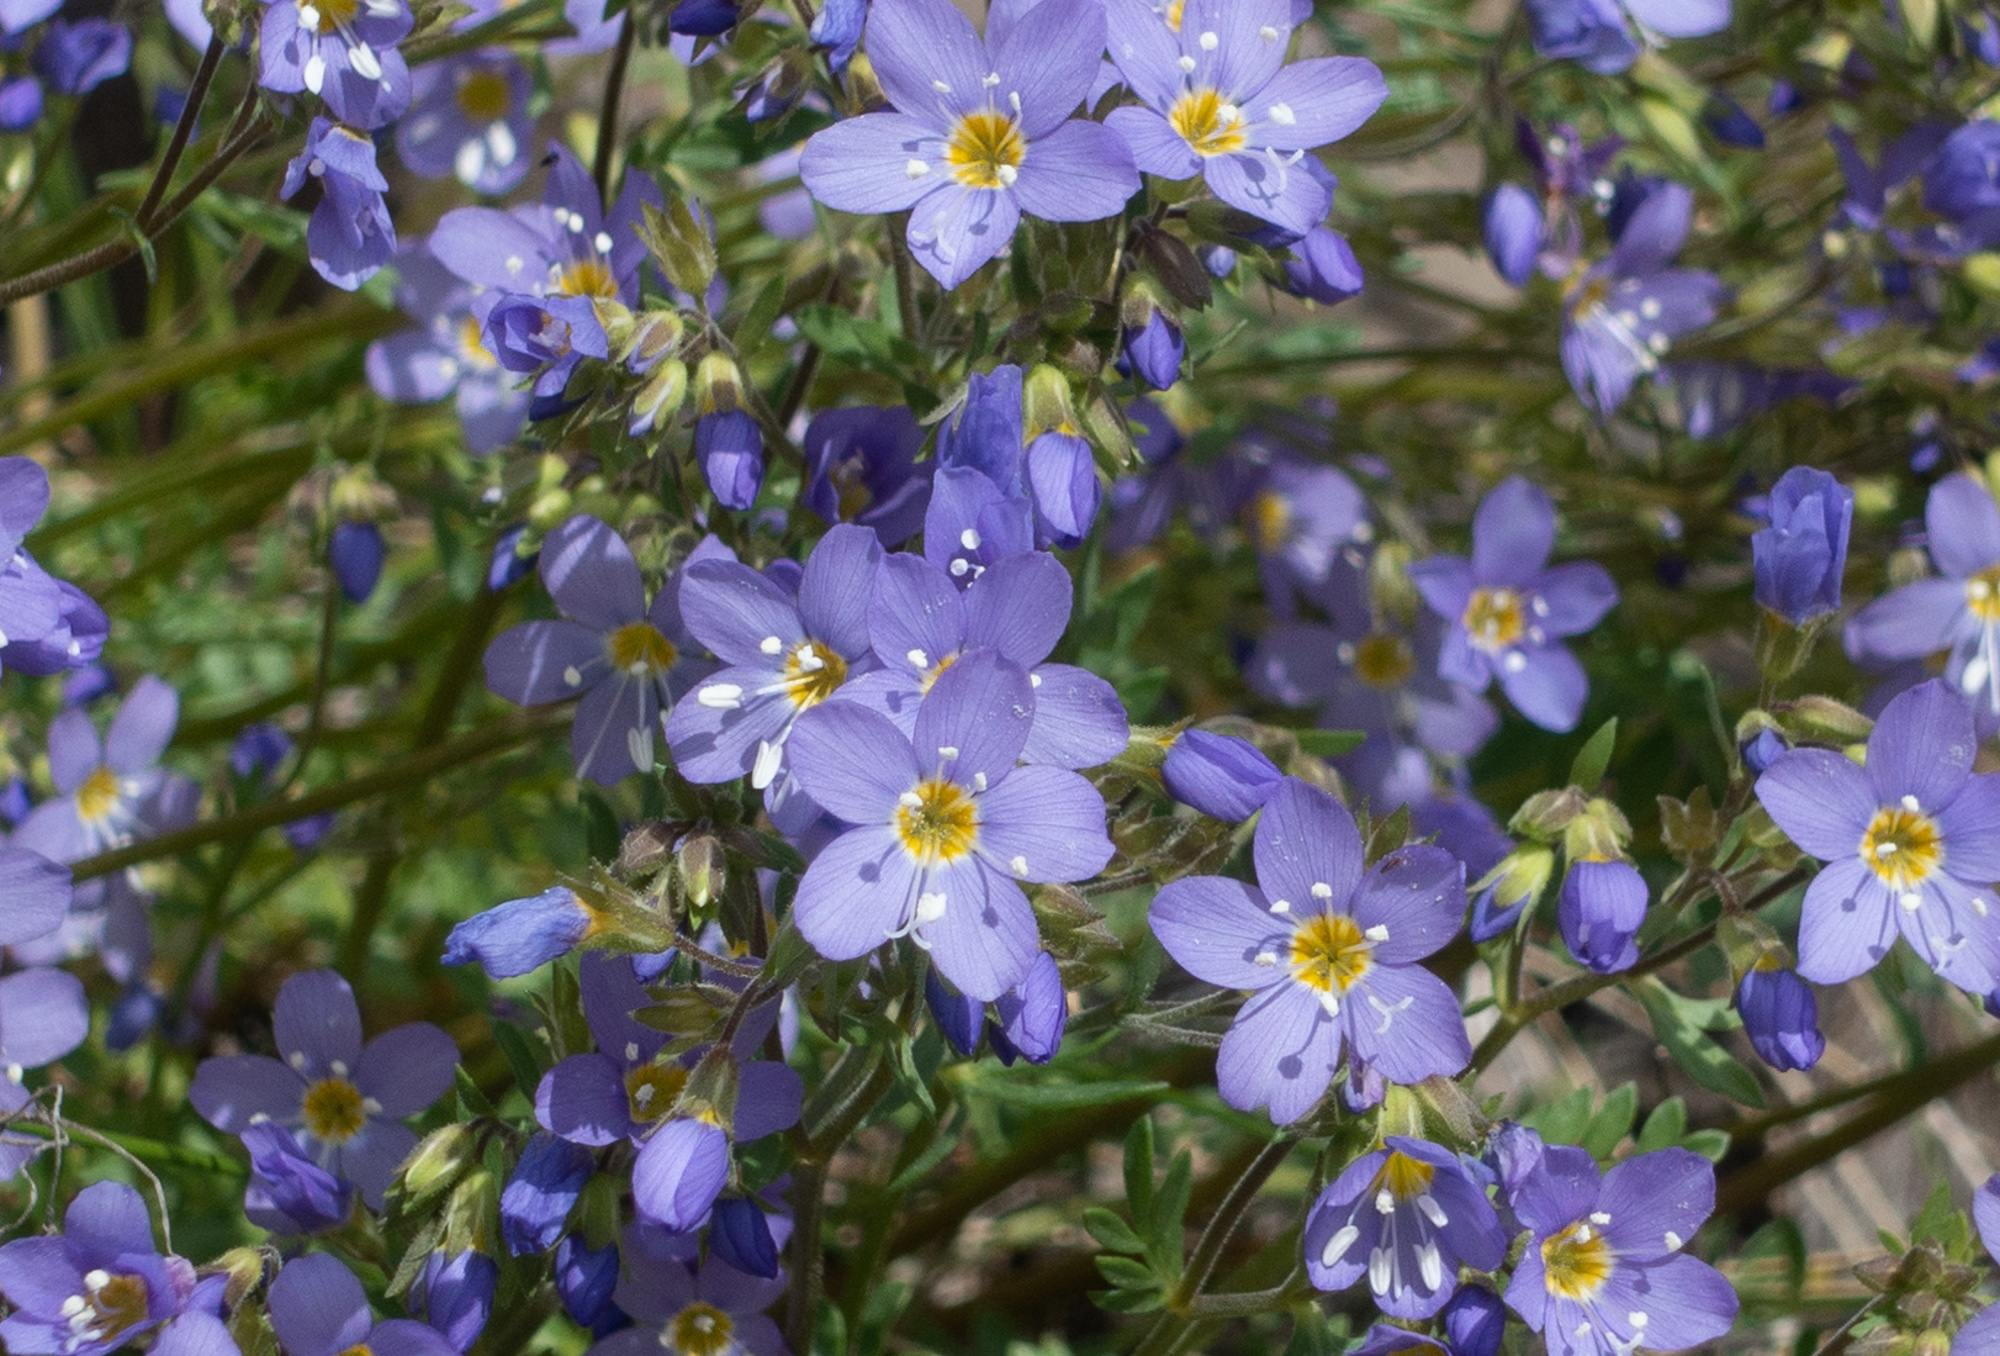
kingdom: Plantae
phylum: Tracheophyta
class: Magnoliopsida
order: Ericales
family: Polemoniaceae
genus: Polemonium
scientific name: Polemonium pulcherrimum
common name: Short jacob's-ladder
